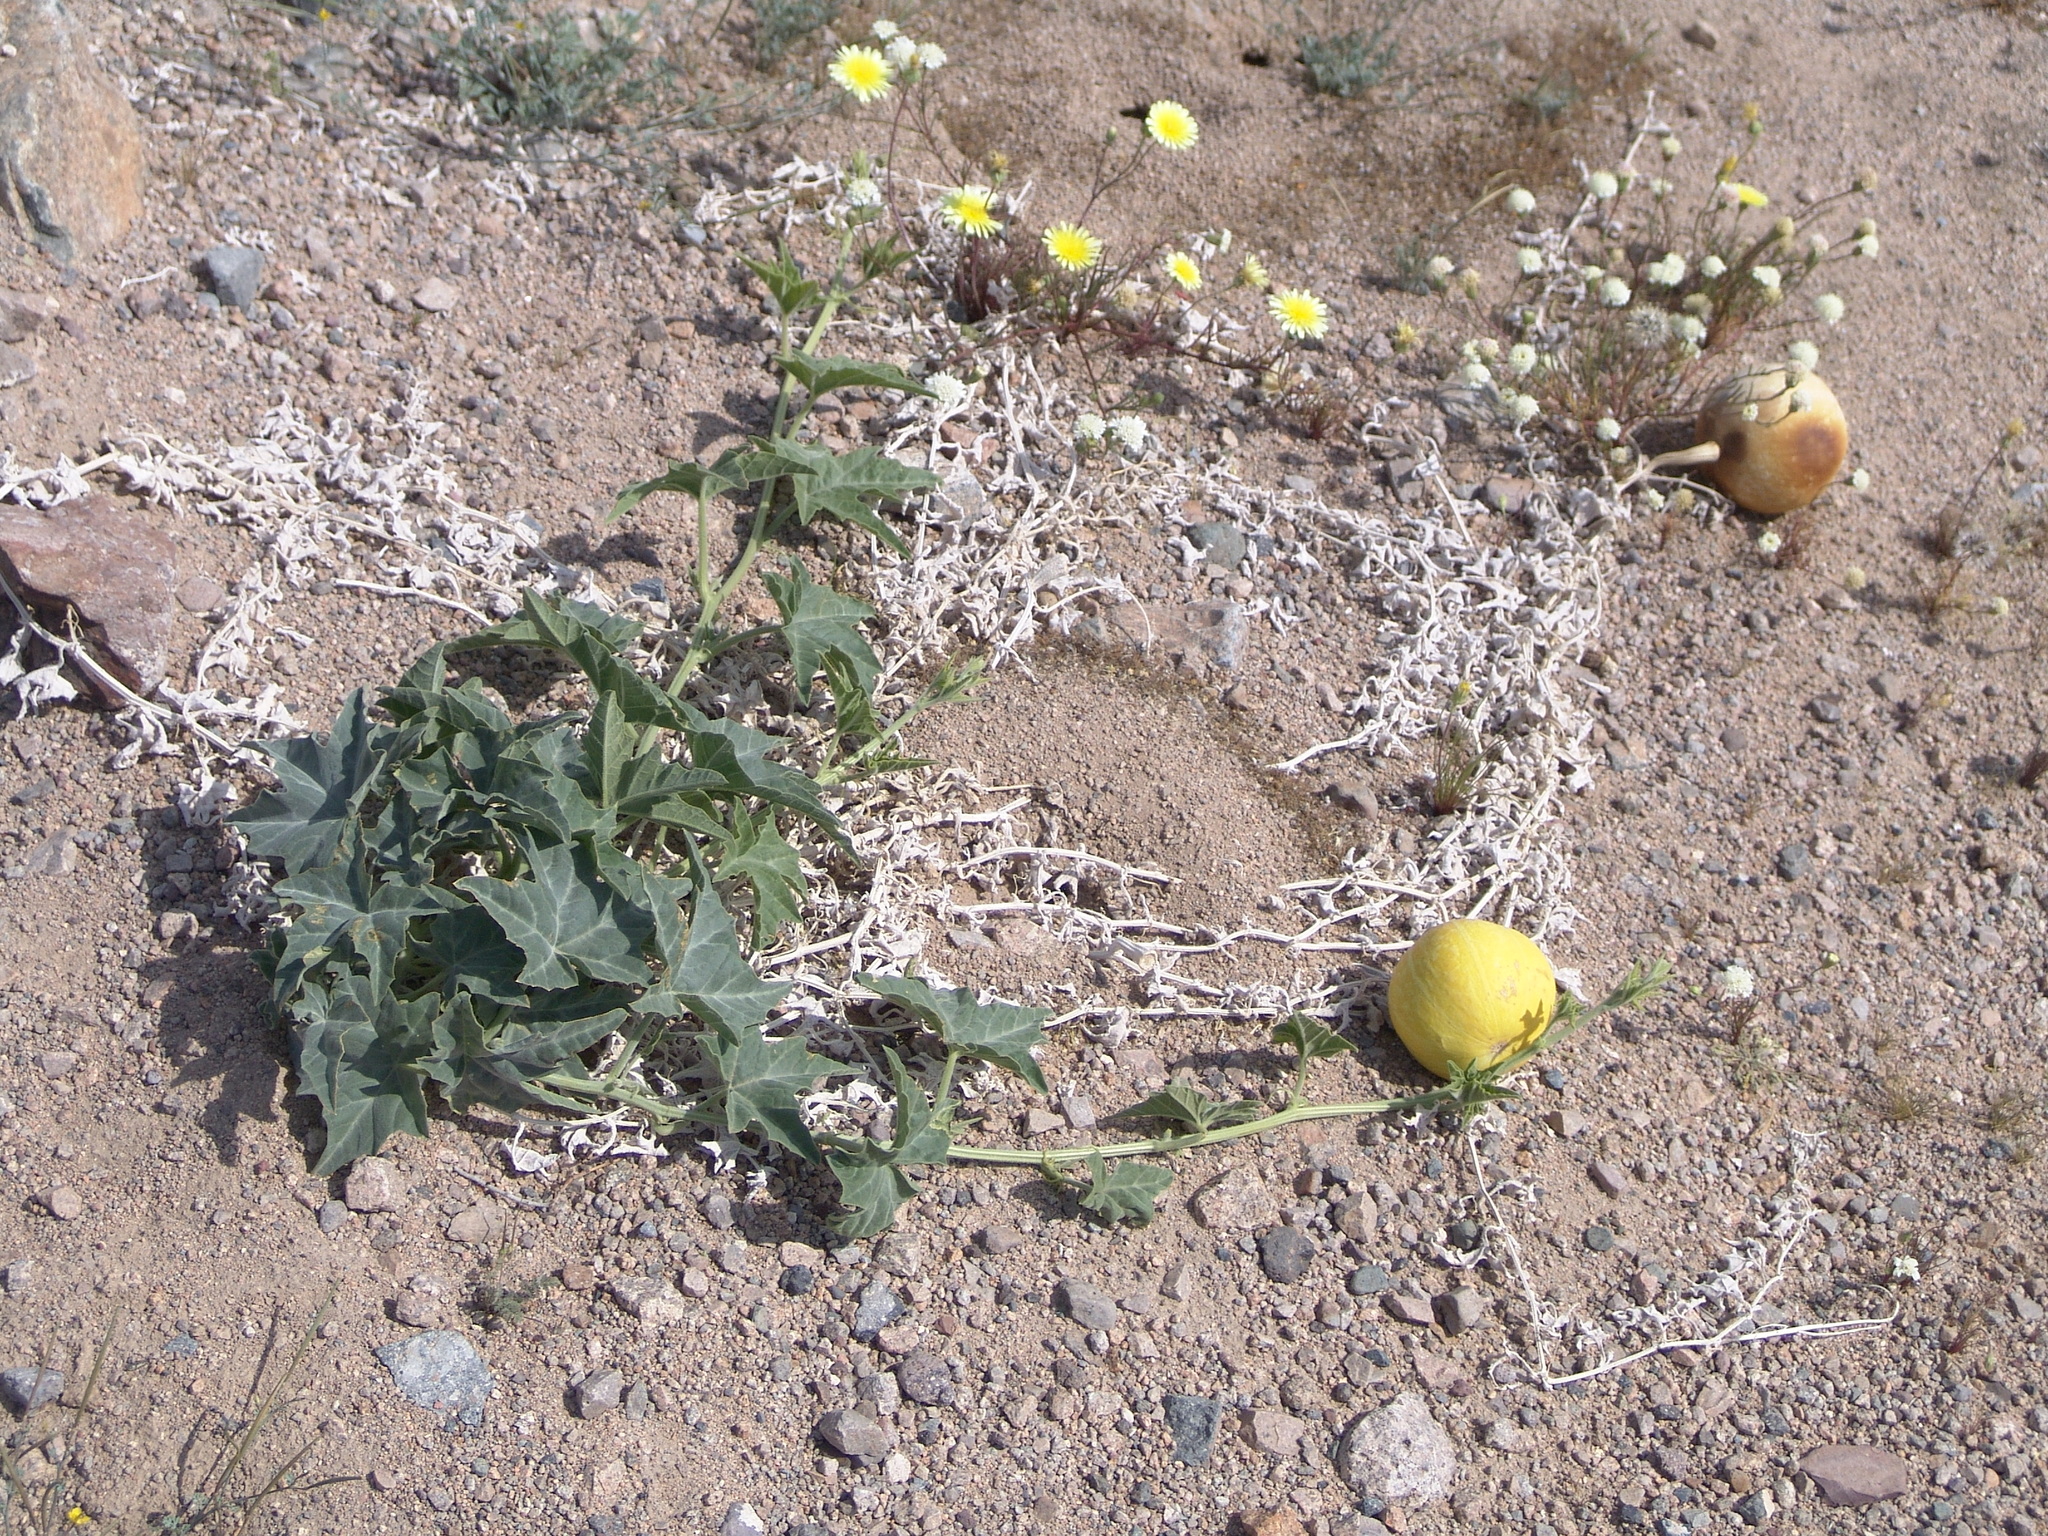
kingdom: Plantae
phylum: Tracheophyta
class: Magnoliopsida
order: Cucurbitales
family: Cucurbitaceae
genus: Cucurbita
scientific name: Cucurbita palmata
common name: Coyote-melon
